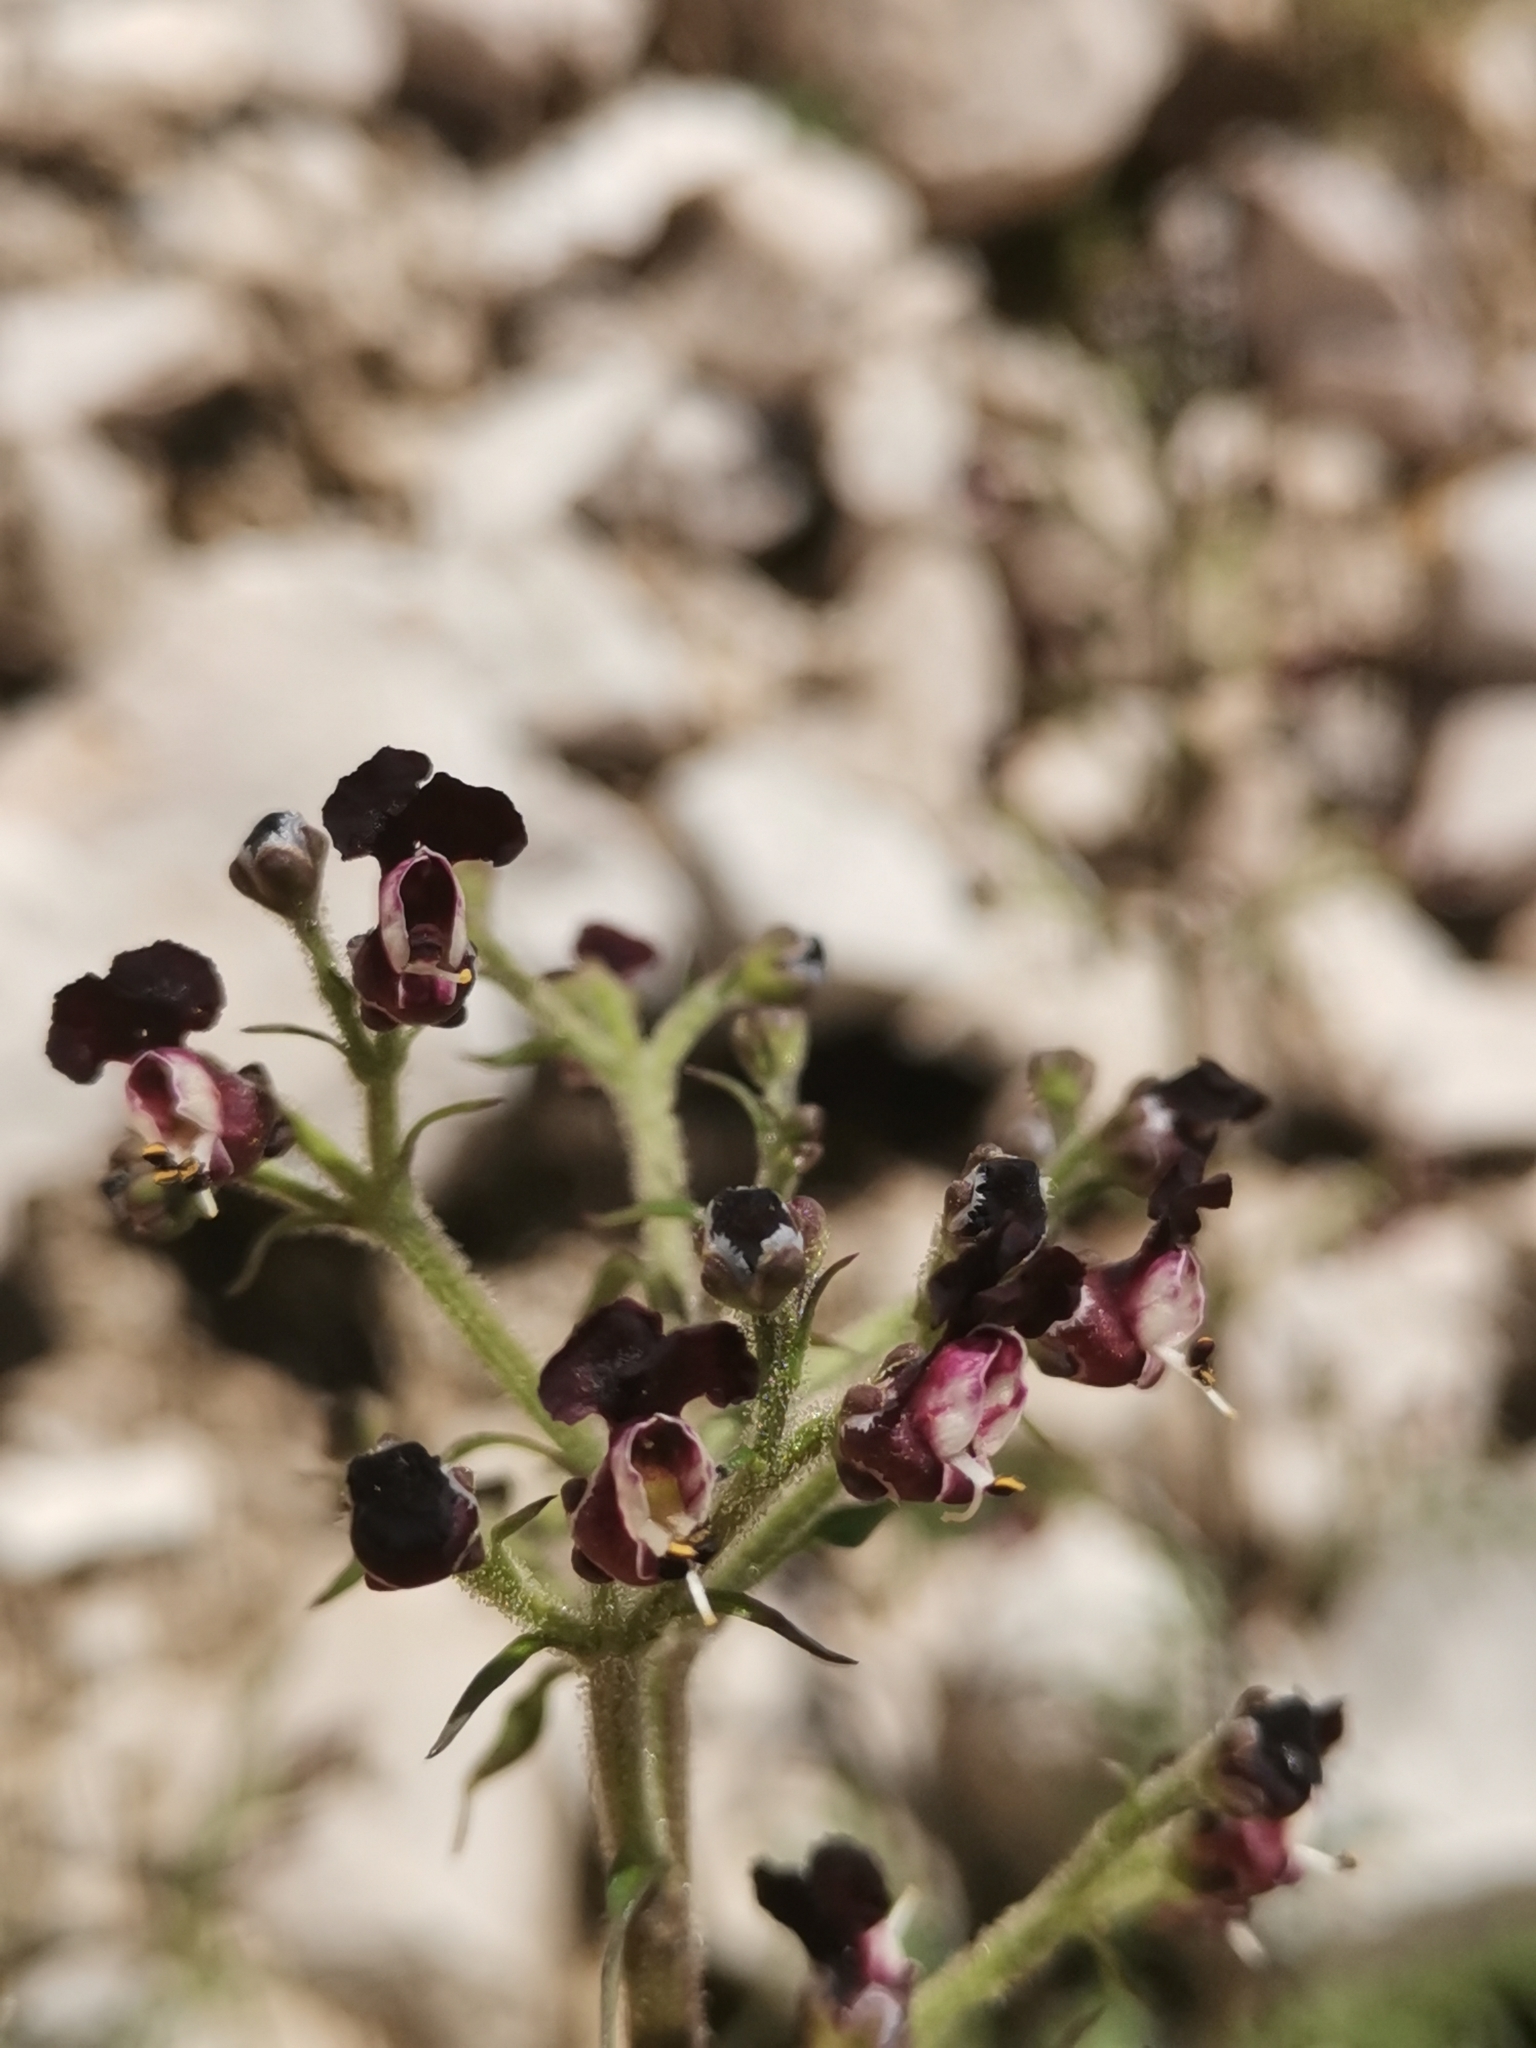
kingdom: Plantae
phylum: Tracheophyta
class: Magnoliopsida
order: Lamiales
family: Scrophulariaceae
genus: Scrophularia
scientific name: Scrophularia canina
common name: French figwort
